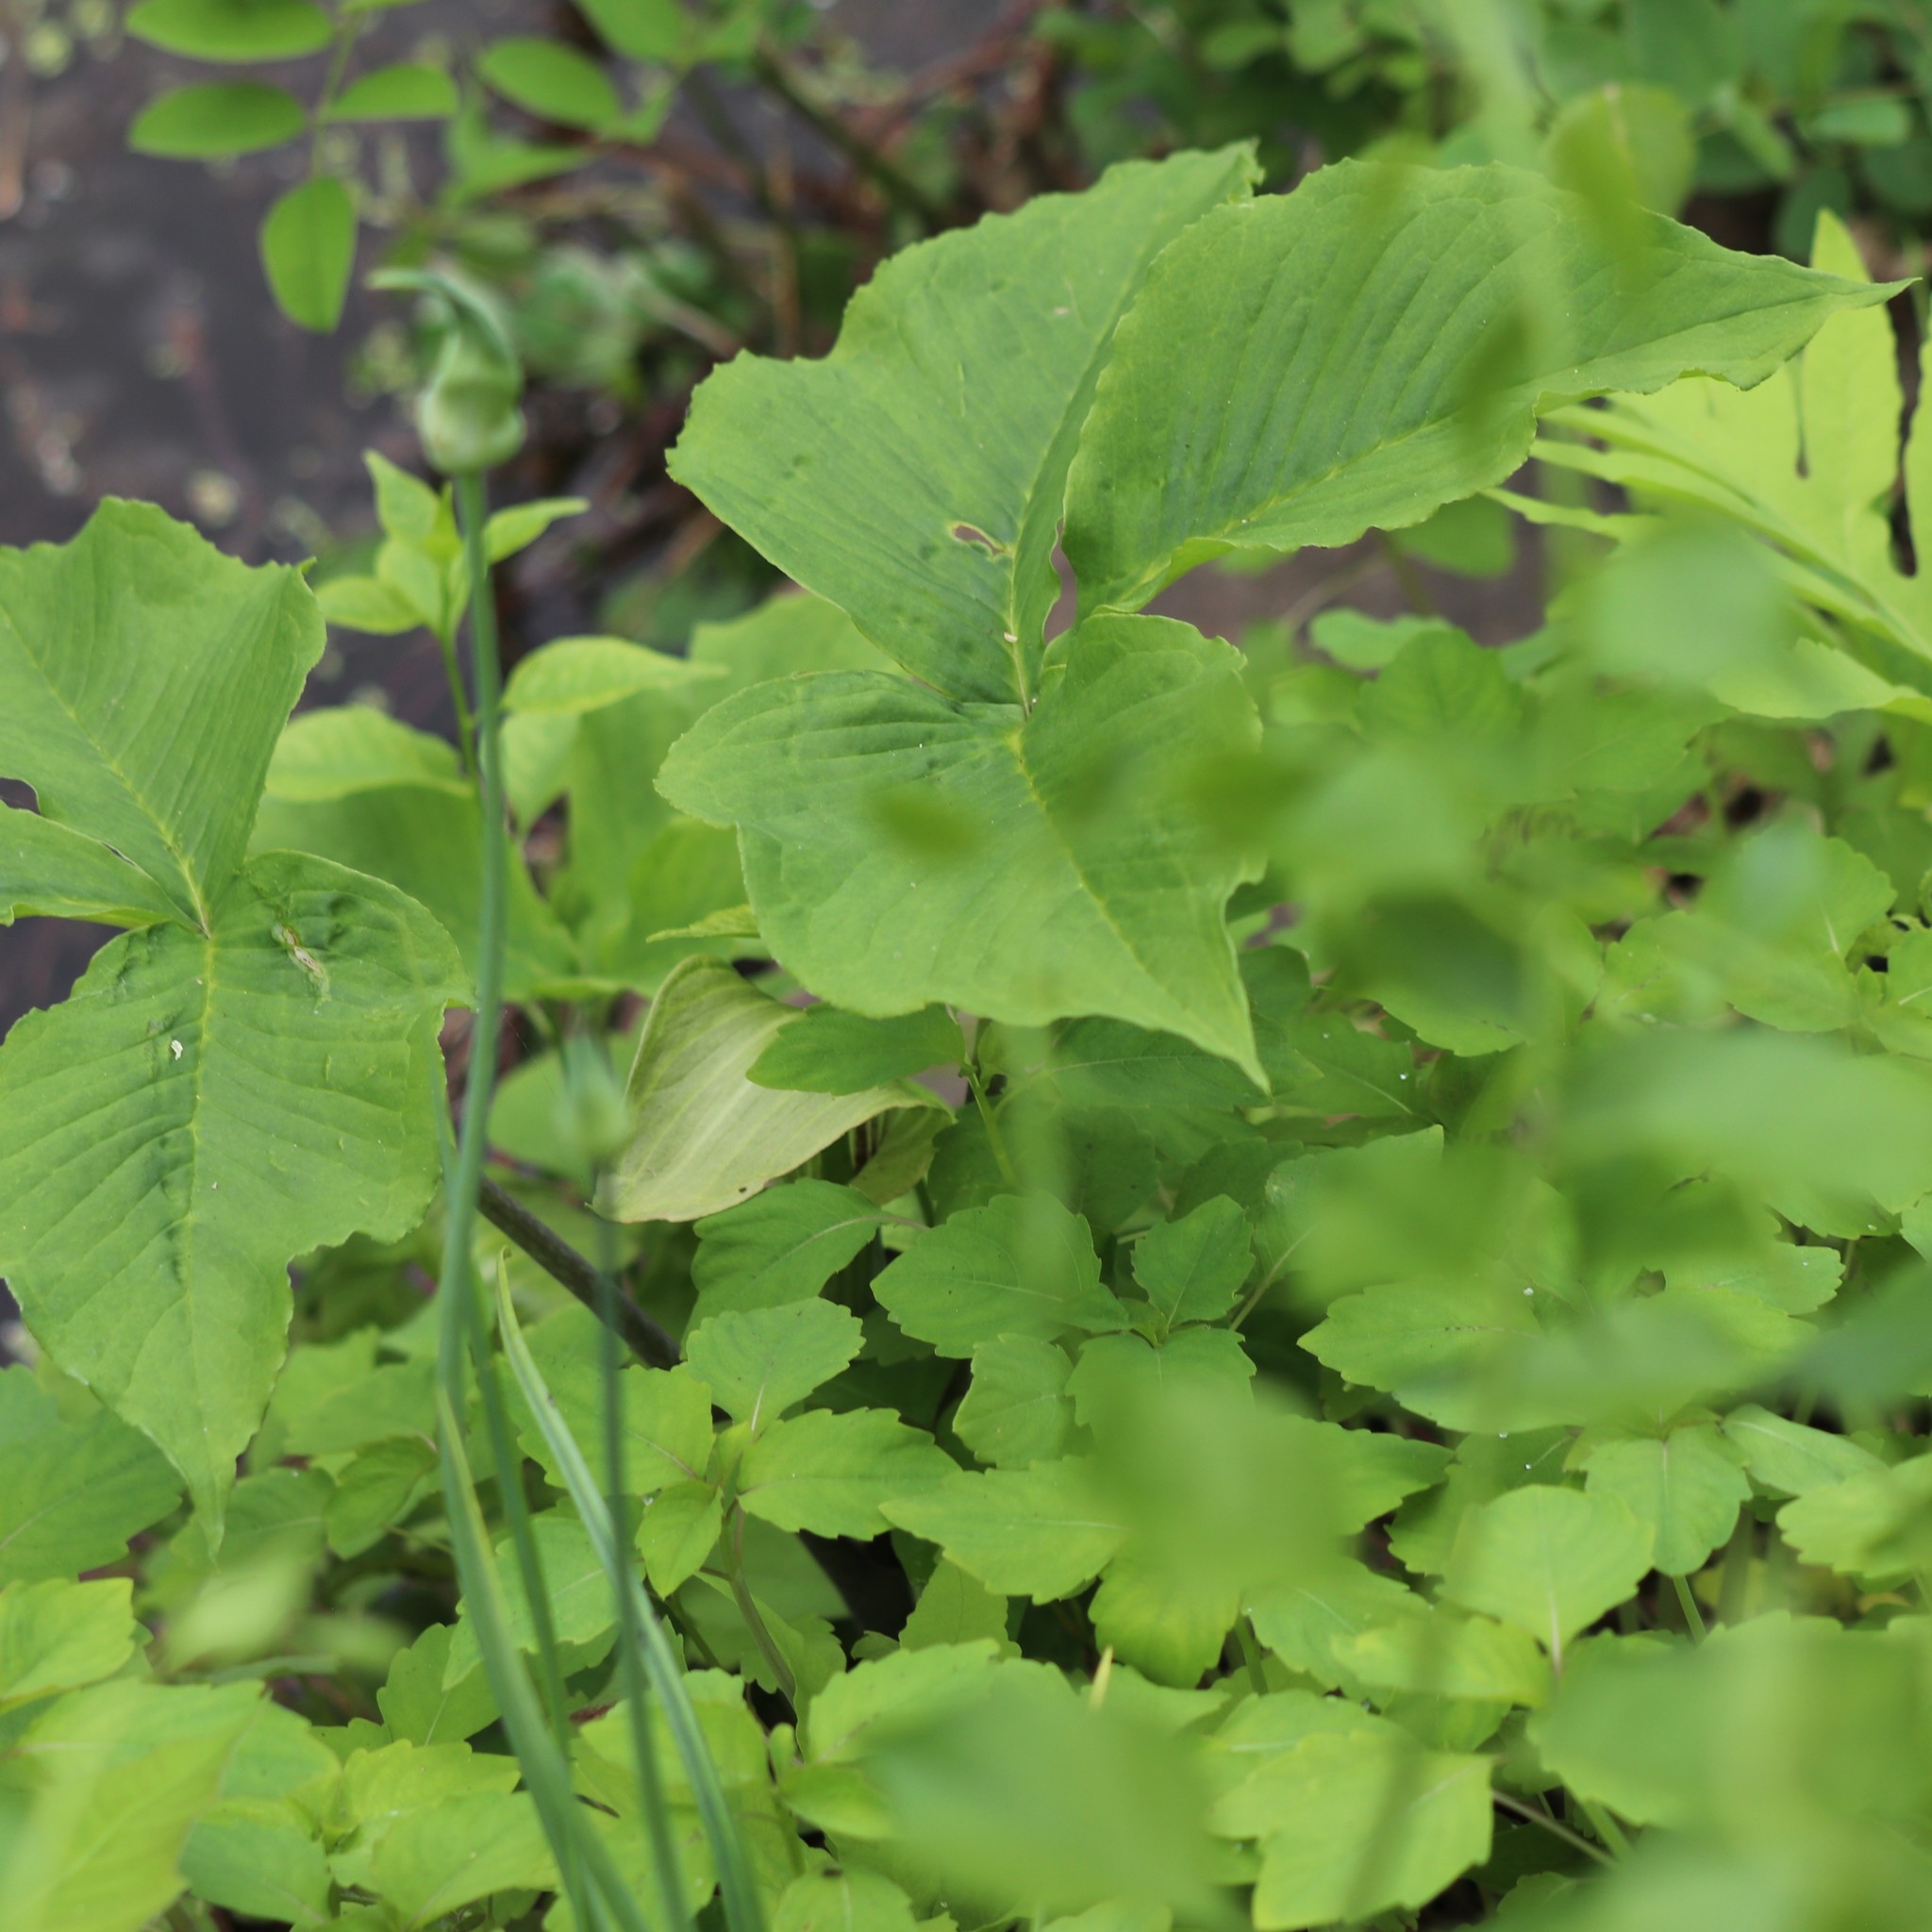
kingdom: Plantae
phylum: Tracheophyta
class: Liliopsida
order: Alismatales
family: Araceae
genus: Arisaema
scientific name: Arisaema triphyllum
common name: Jack-in-the-pulpit
